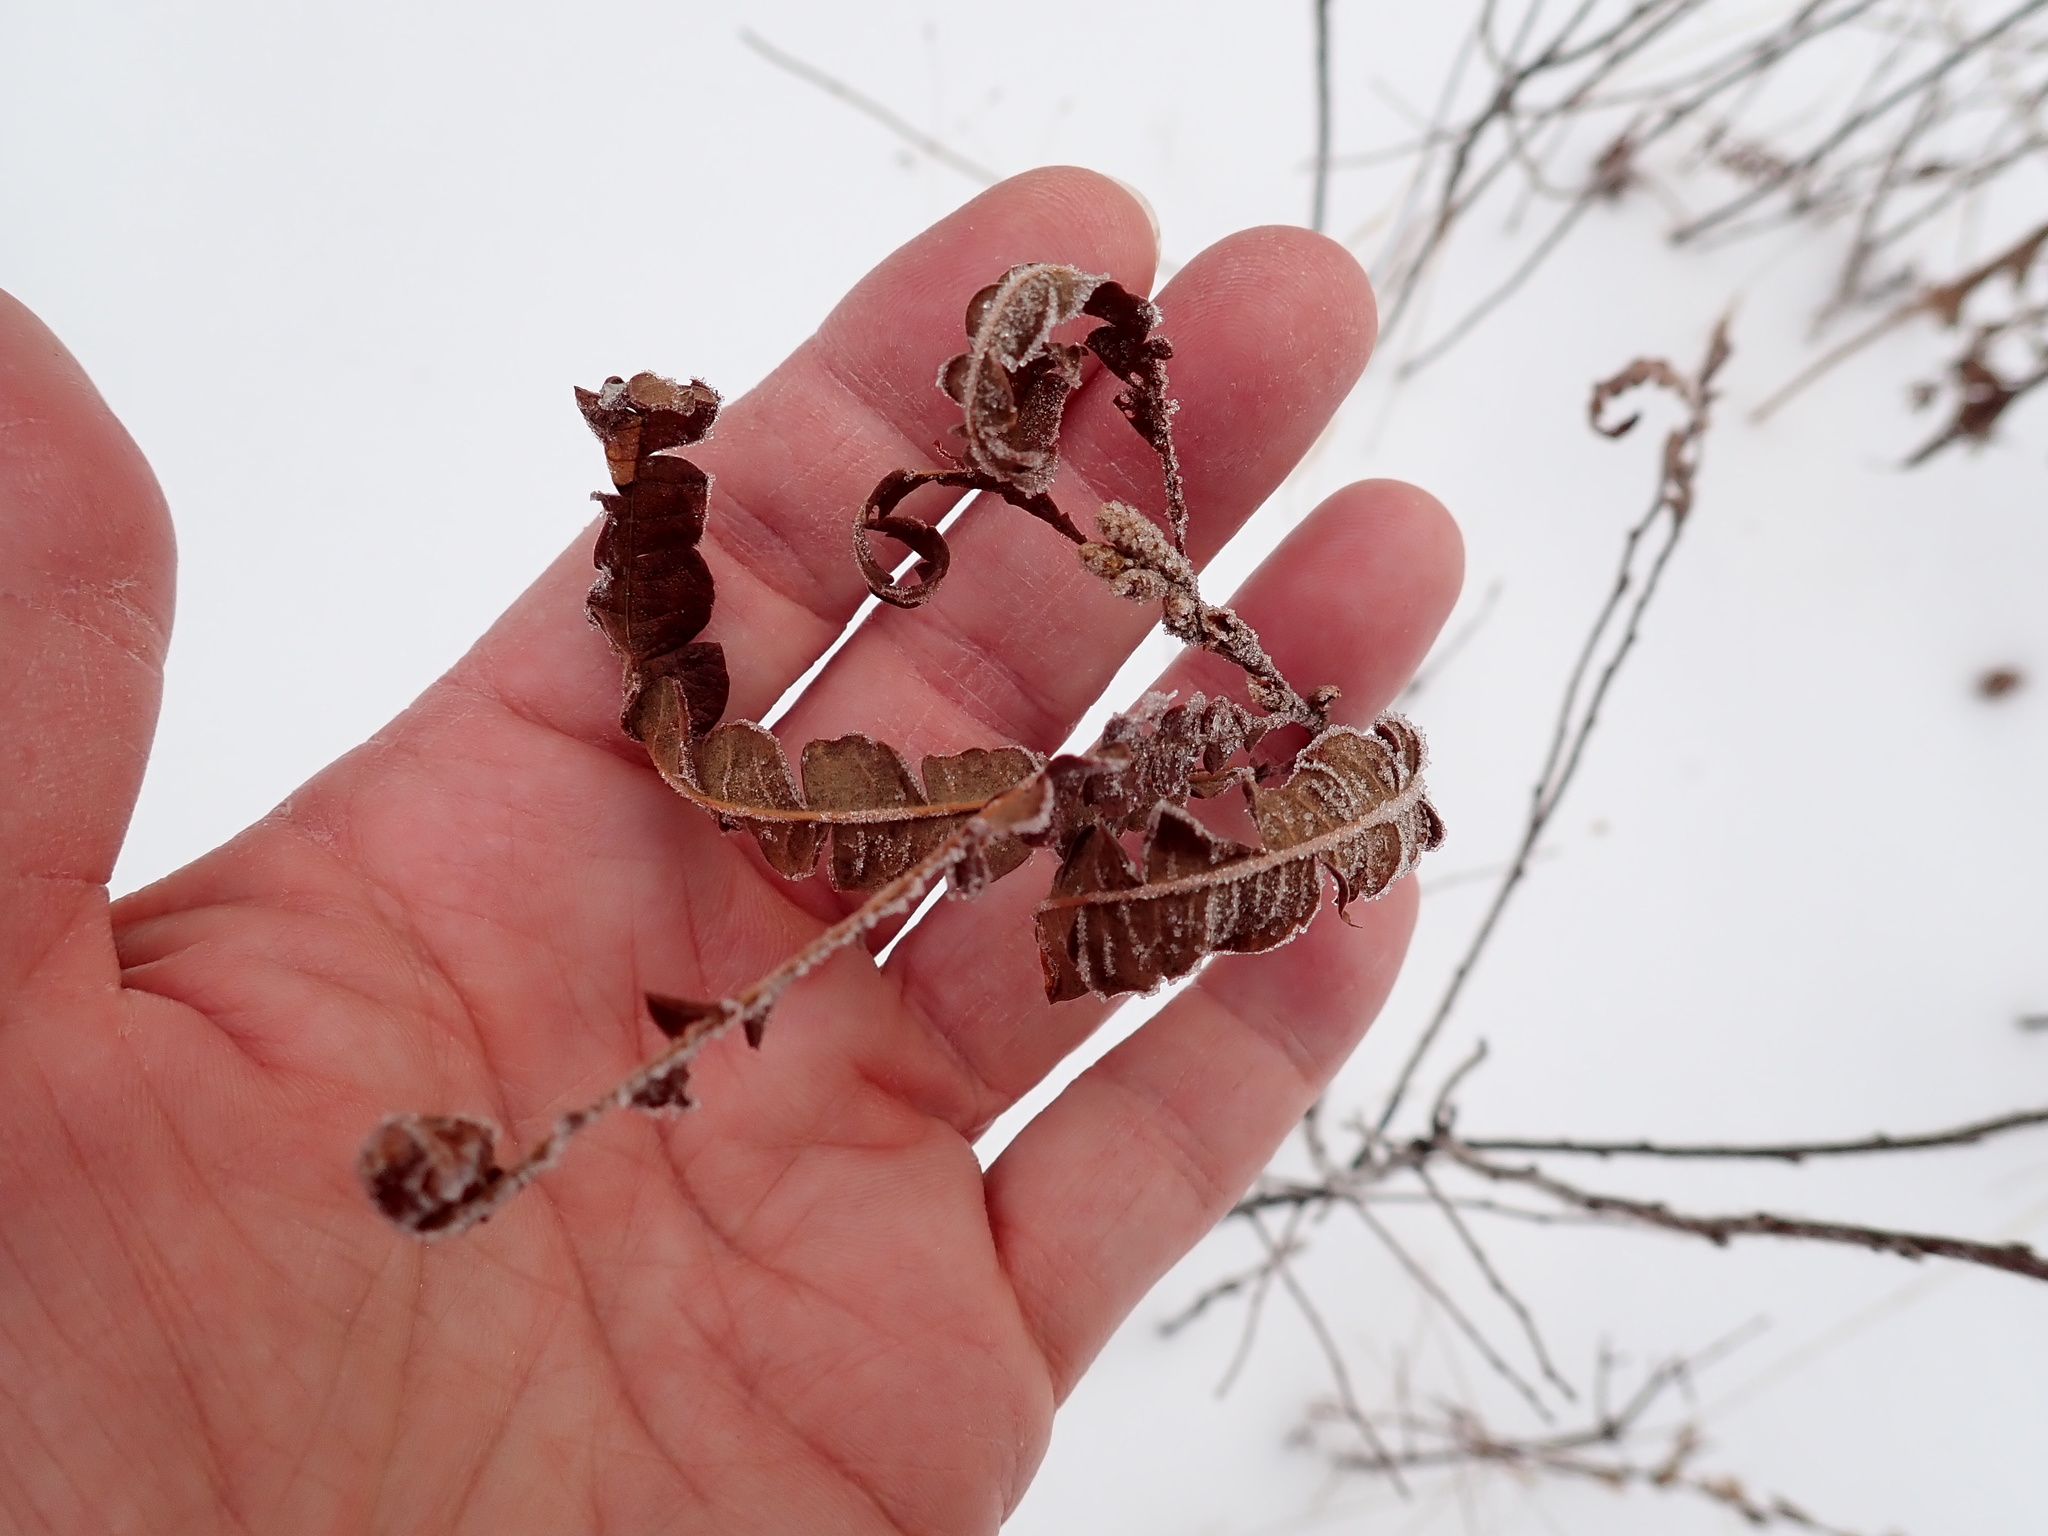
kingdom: Plantae
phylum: Tracheophyta
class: Magnoliopsida
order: Fagales
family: Myricaceae
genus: Comptonia
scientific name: Comptonia peregrina
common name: Sweet-fern
